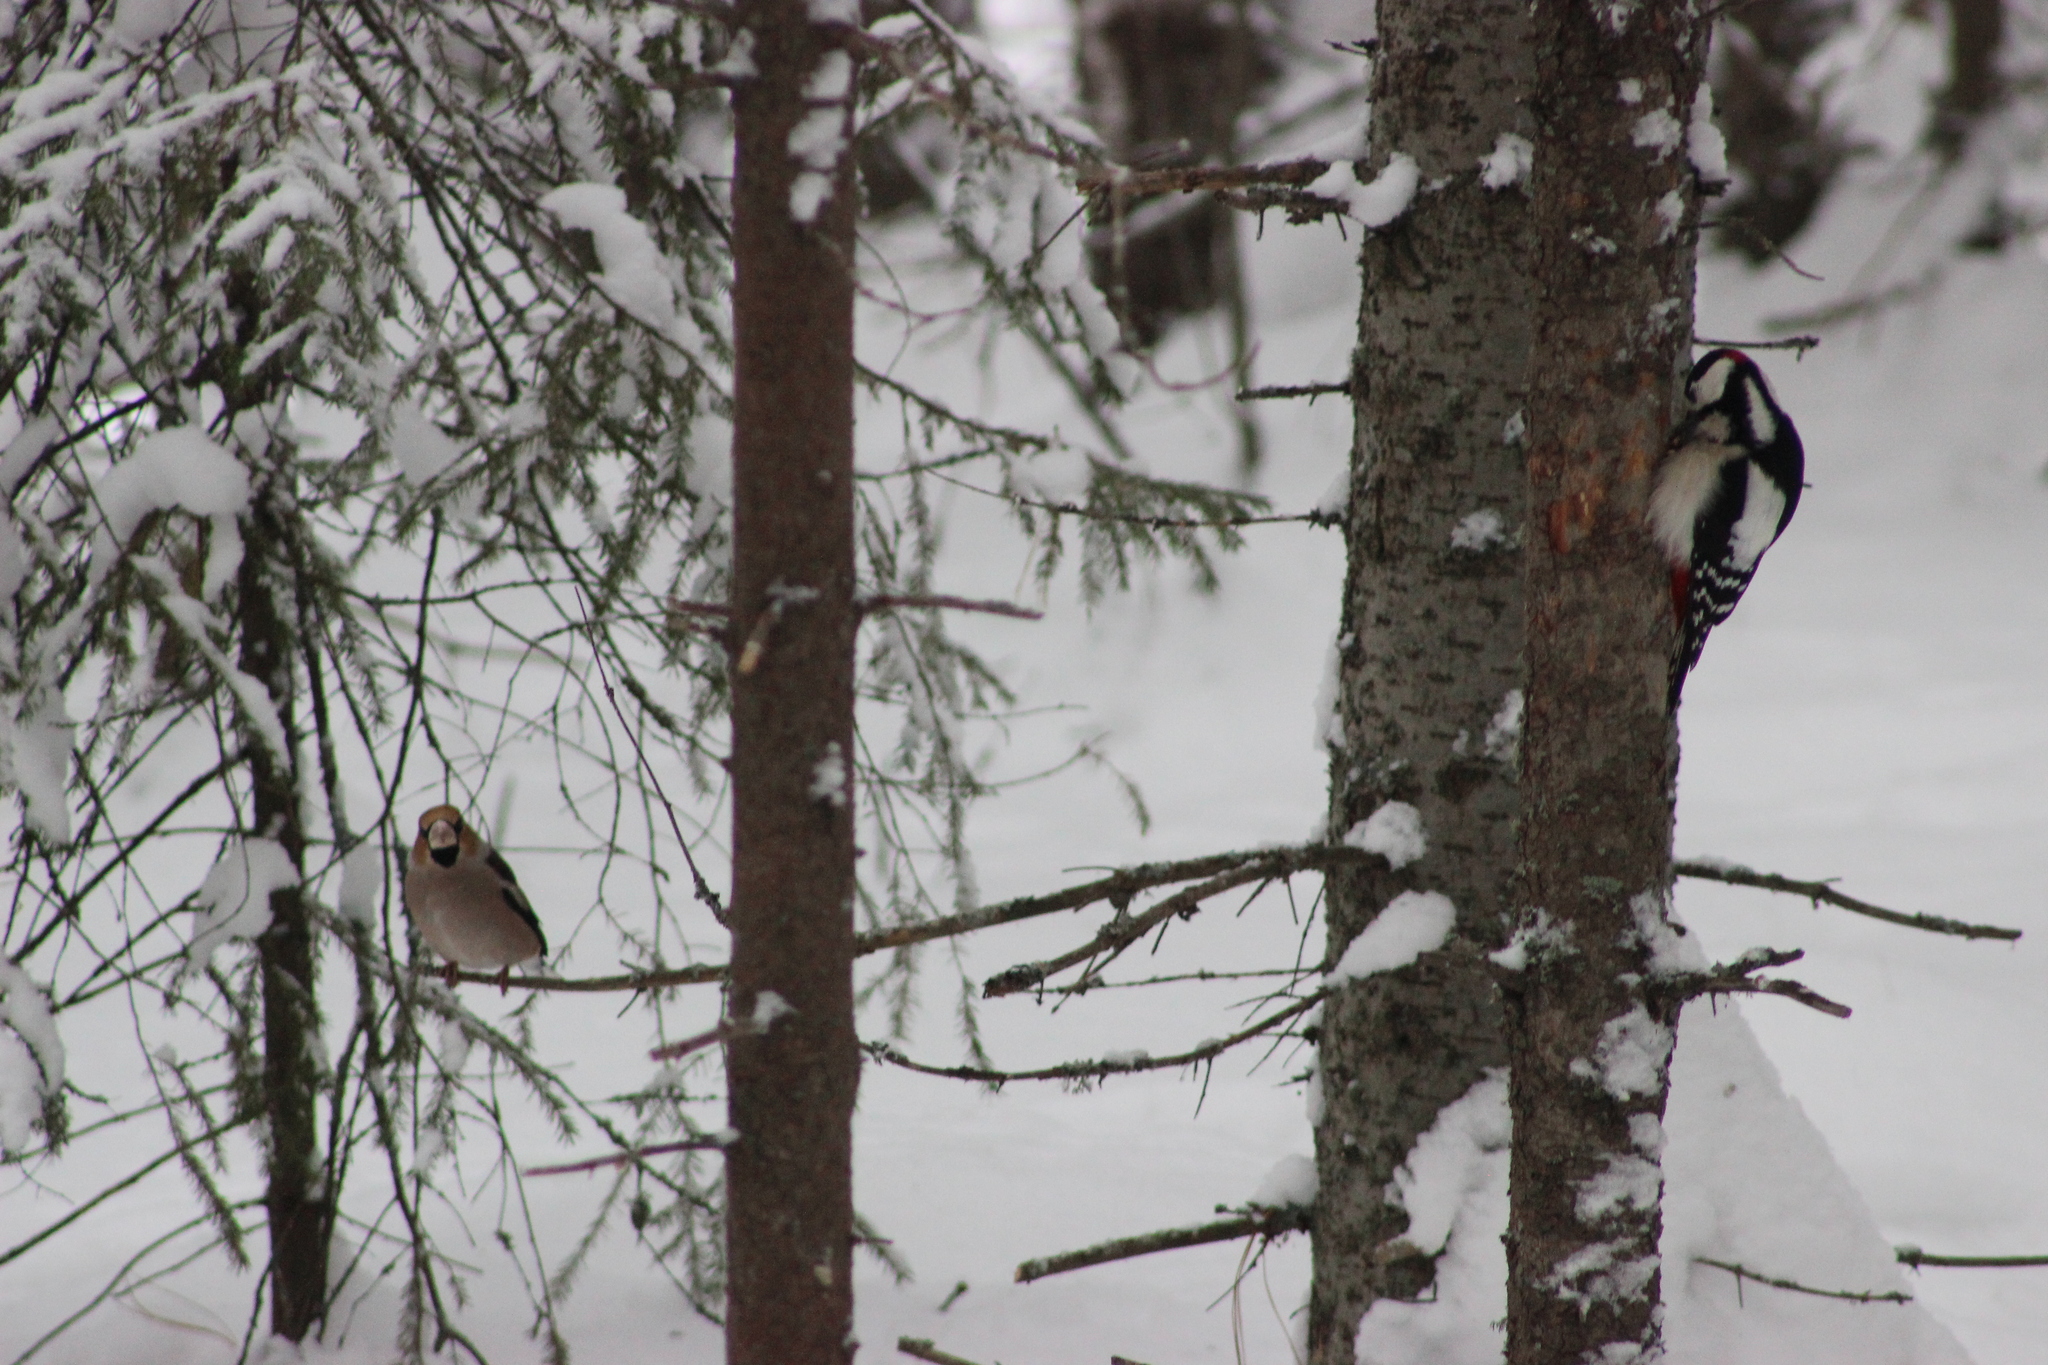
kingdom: Animalia
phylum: Chordata
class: Aves
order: Piciformes
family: Picidae
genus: Dendrocopos
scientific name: Dendrocopos major
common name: Great spotted woodpecker
